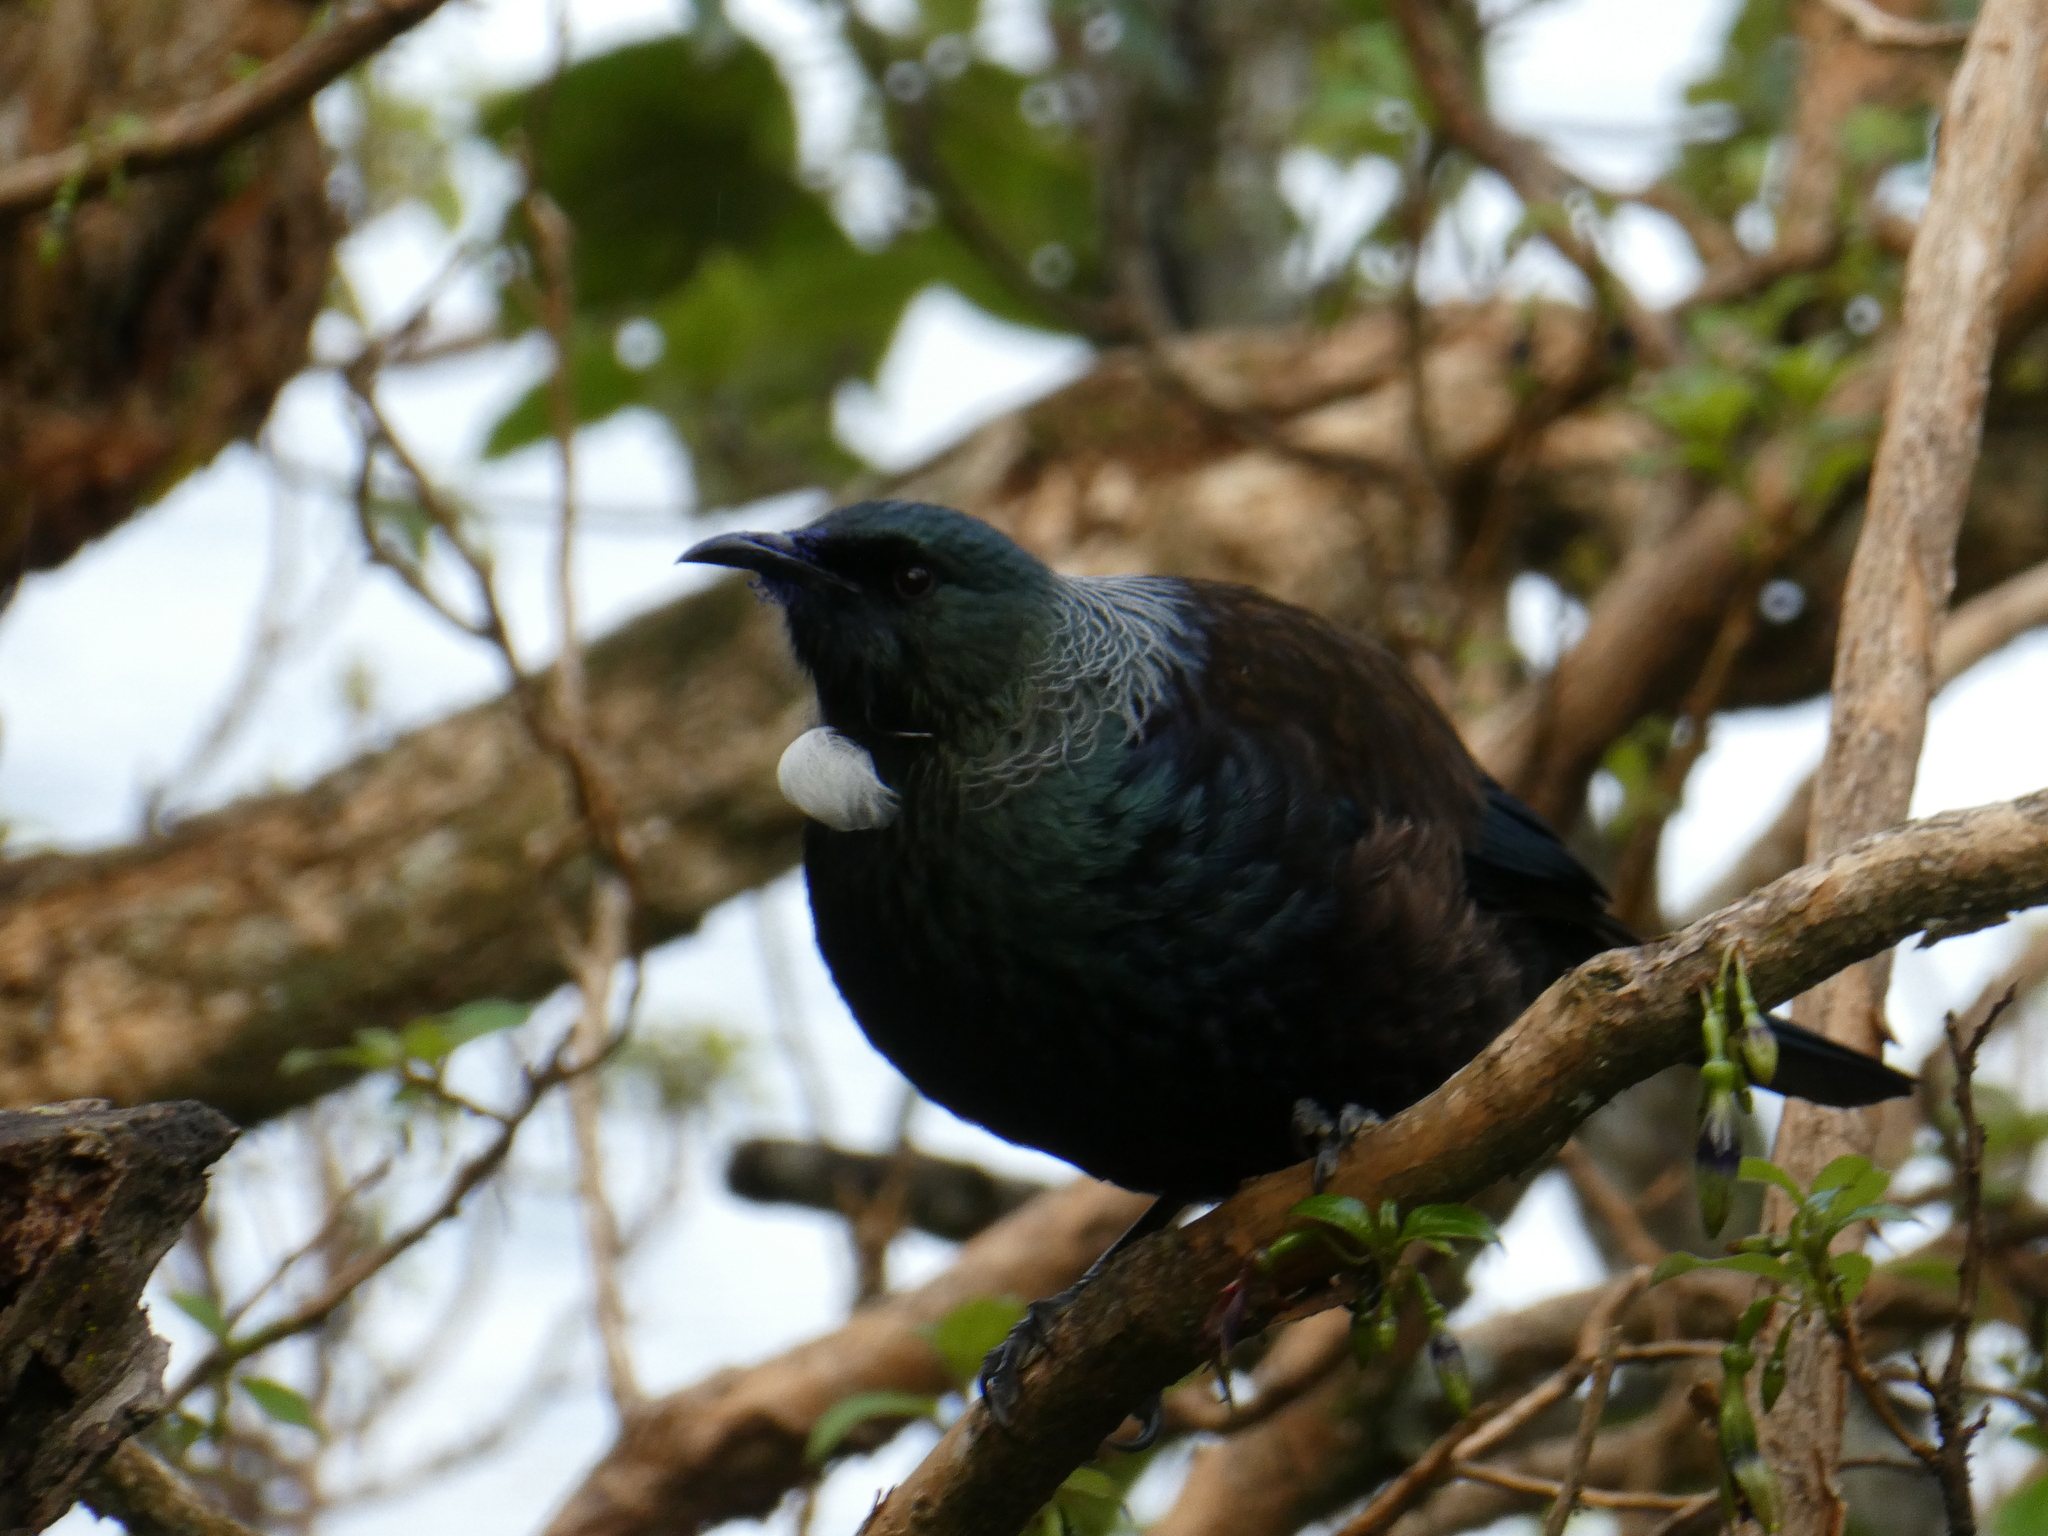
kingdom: Animalia
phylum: Chordata
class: Aves
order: Passeriformes
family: Meliphagidae
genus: Prosthemadera
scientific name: Prosthemadera novaeseelandiae
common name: Tui
